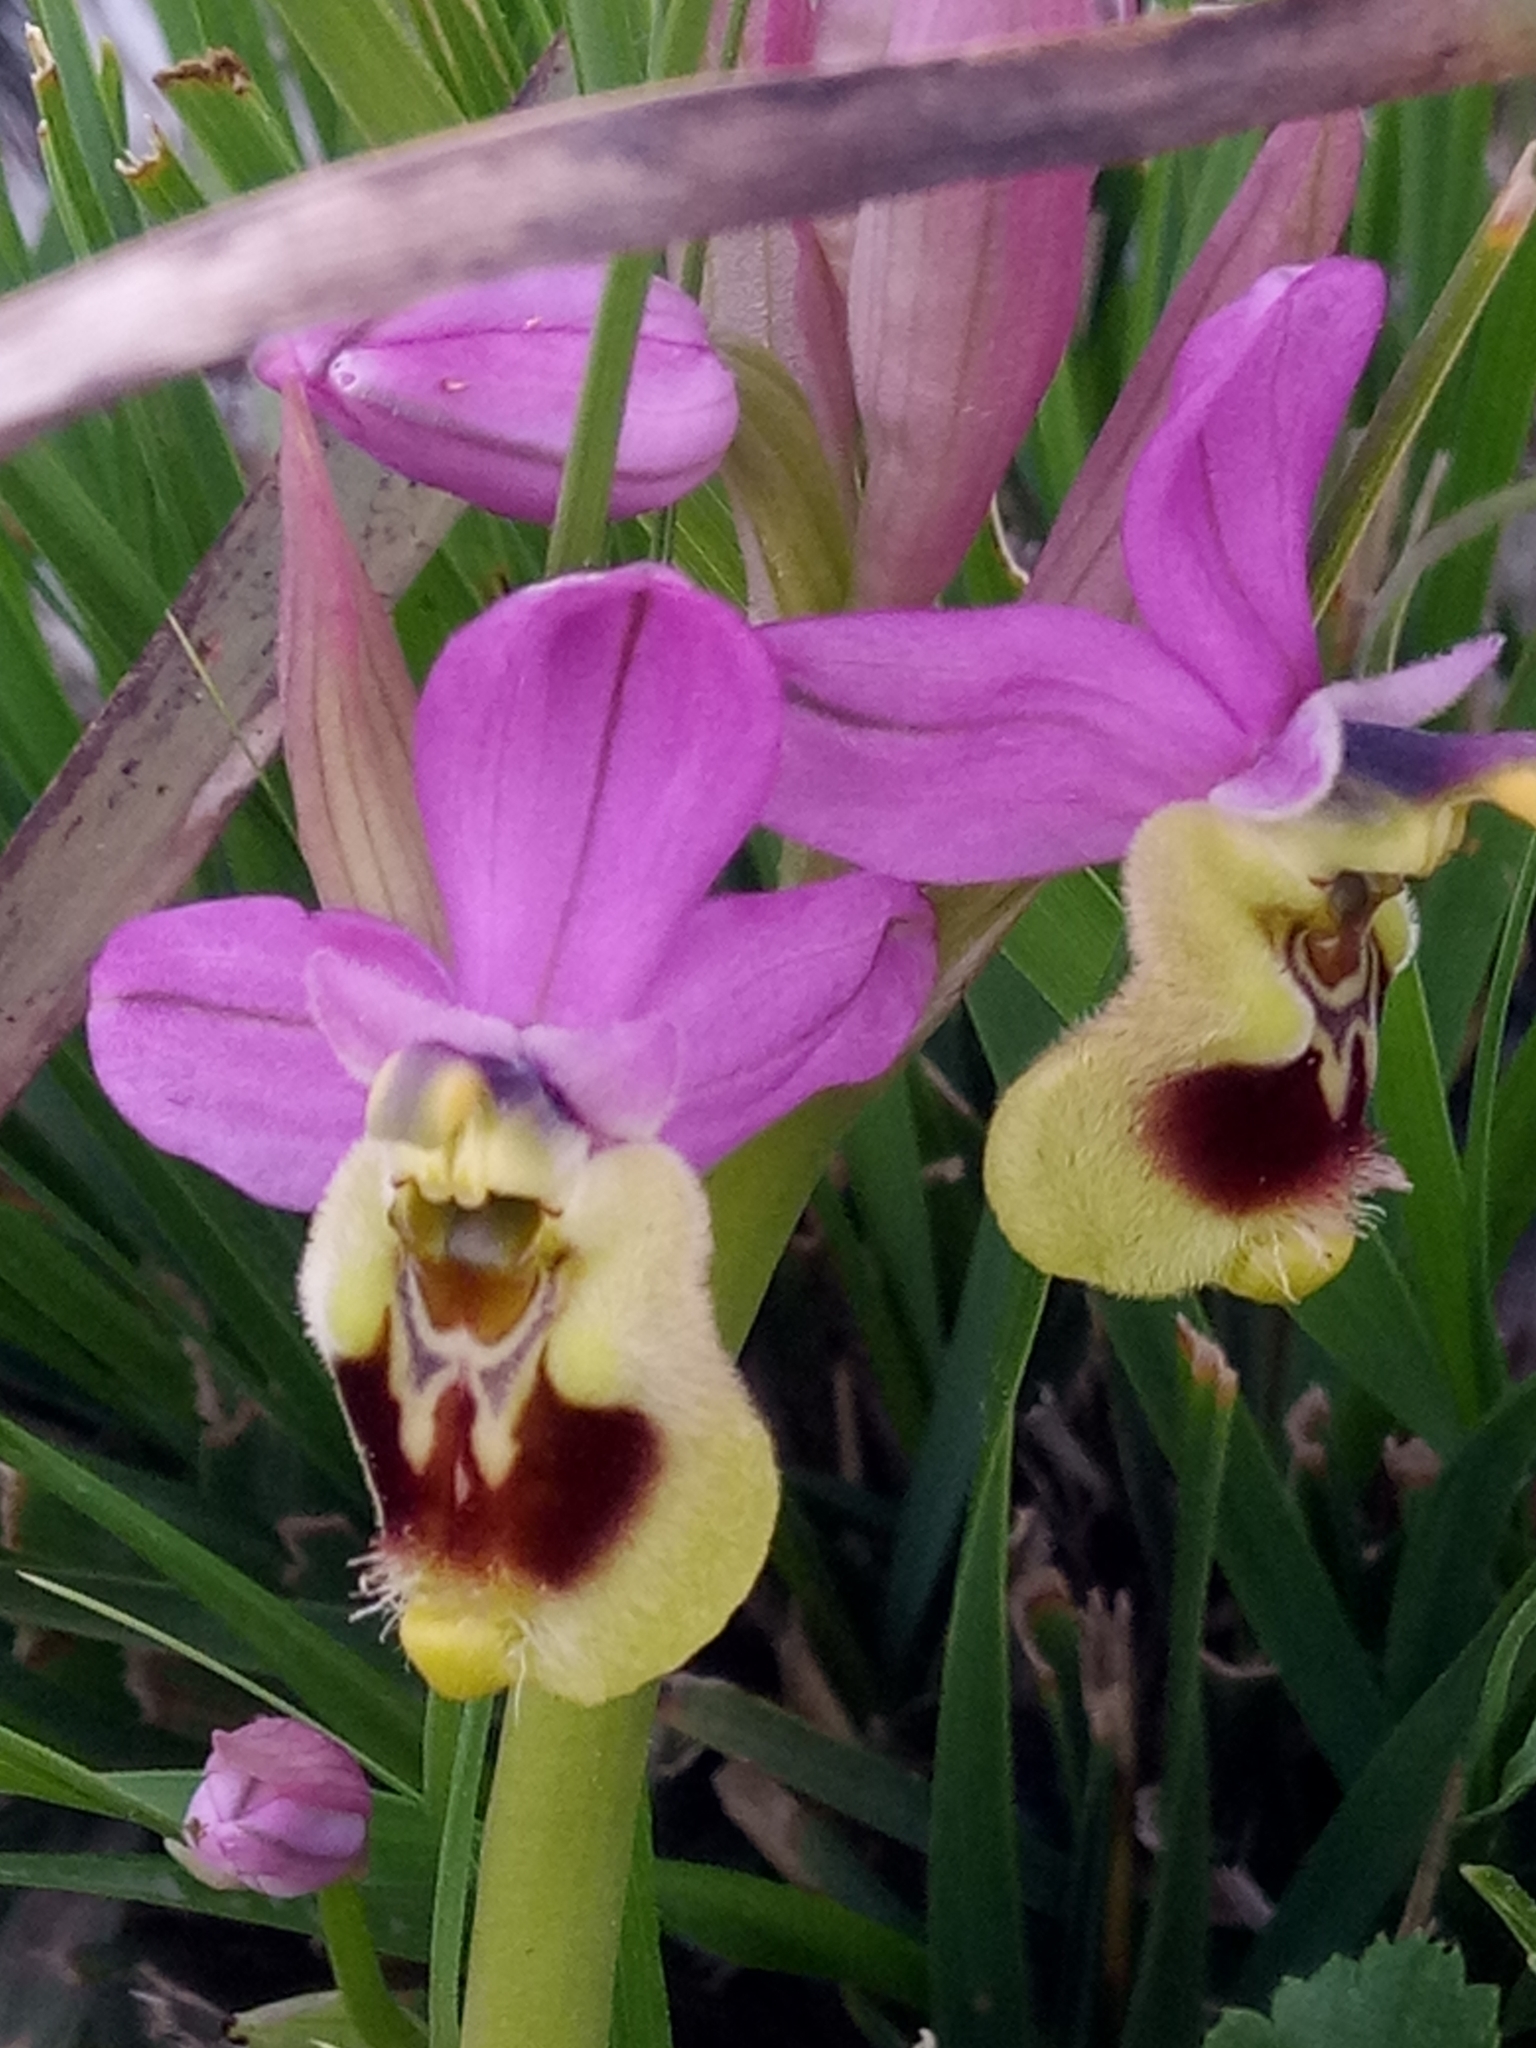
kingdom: Plantae
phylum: Tracheophyta
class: Liliopsida
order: Asparagales
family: Orchidaceae
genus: Ophrys
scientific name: Ophrys tenthredinifera
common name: Sawfly orchid
